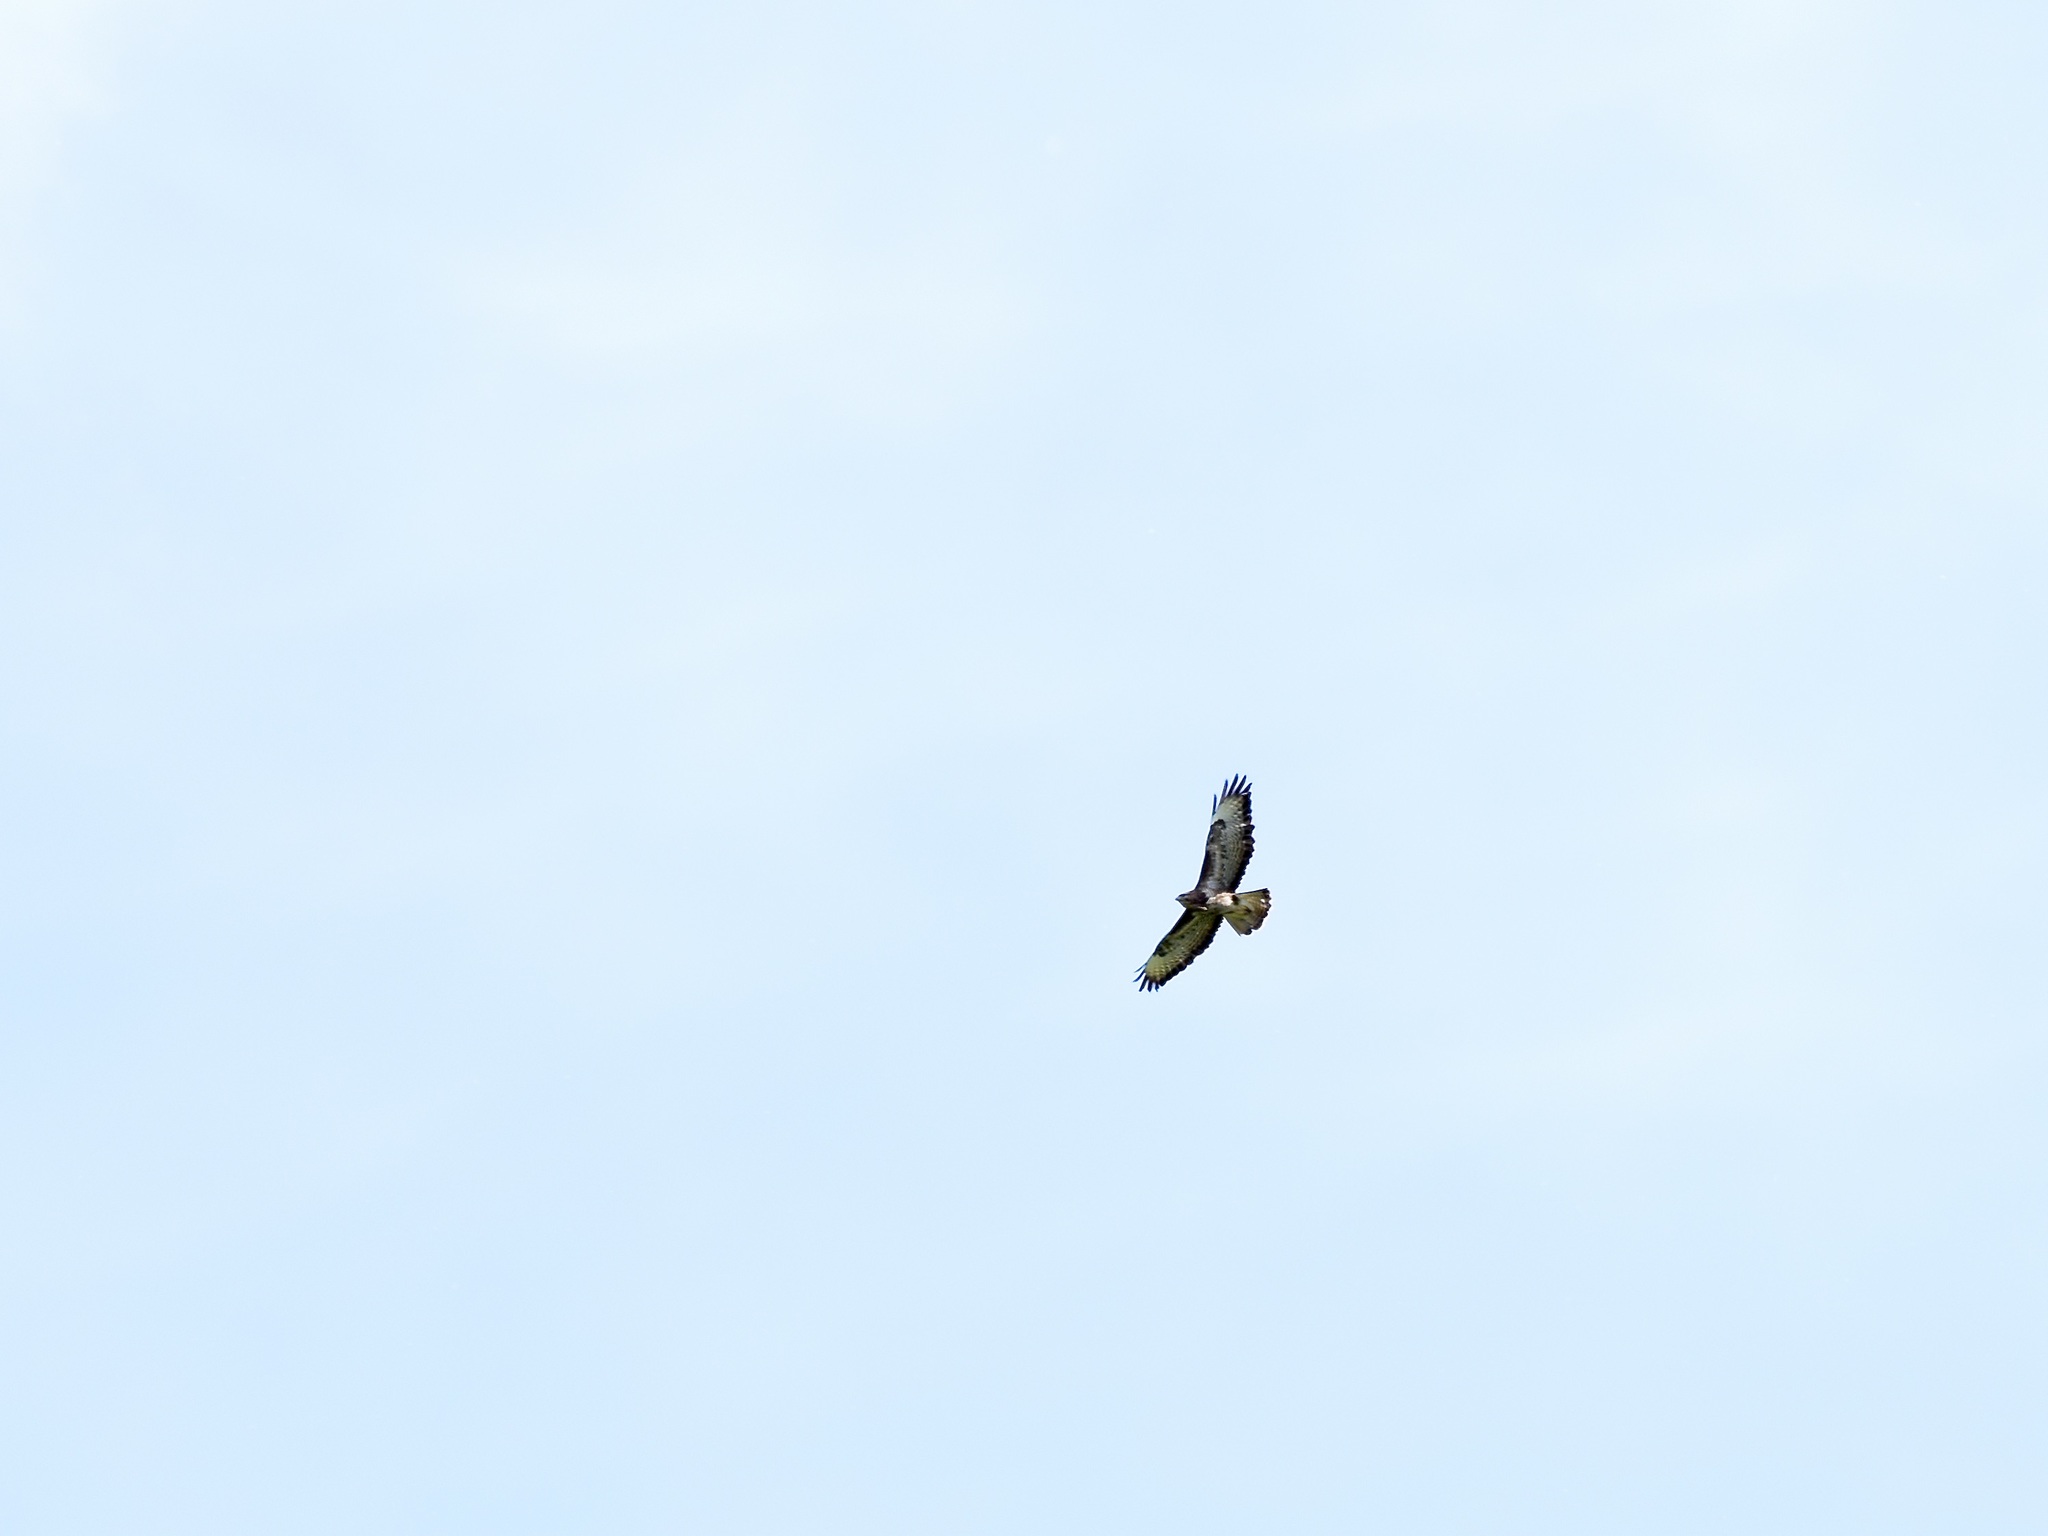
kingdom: Animalia
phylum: Chordata
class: Aves
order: Accipitriformes
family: Accipitridae
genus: Buteo
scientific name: Buteo buteo
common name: Common buzzard
